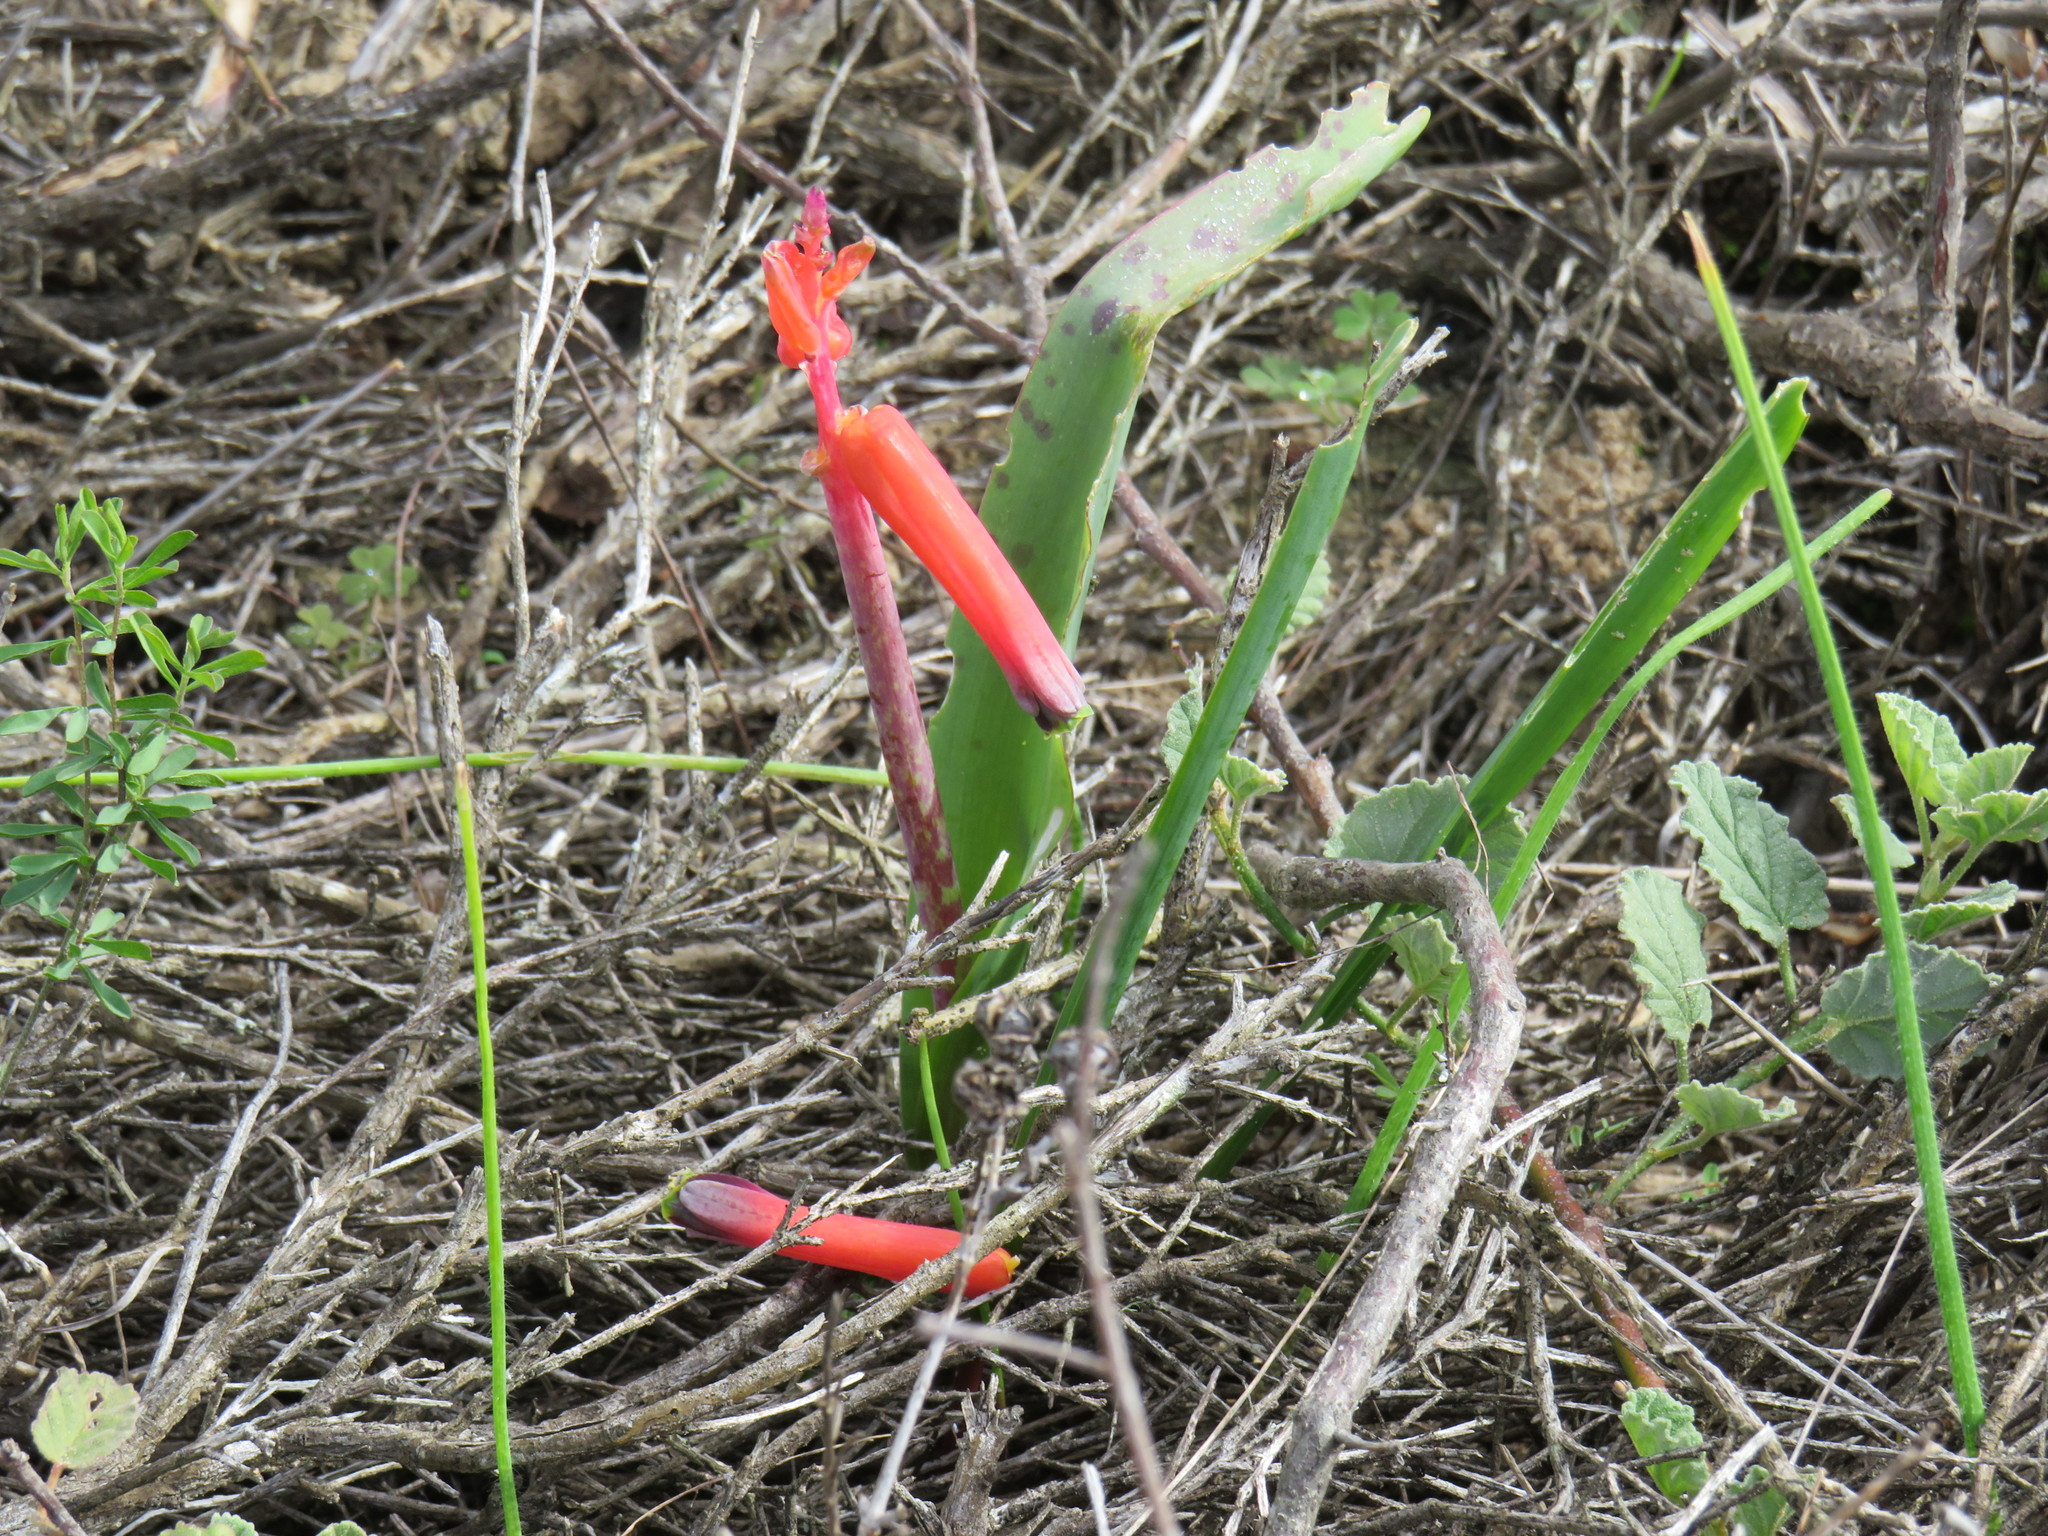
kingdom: Plantae
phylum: Tracheophyta
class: Liliopsida
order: Asparagales
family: Asparagaceae
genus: Lachenalia
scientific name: Lachenalia bulbifera
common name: Red lachenalia
